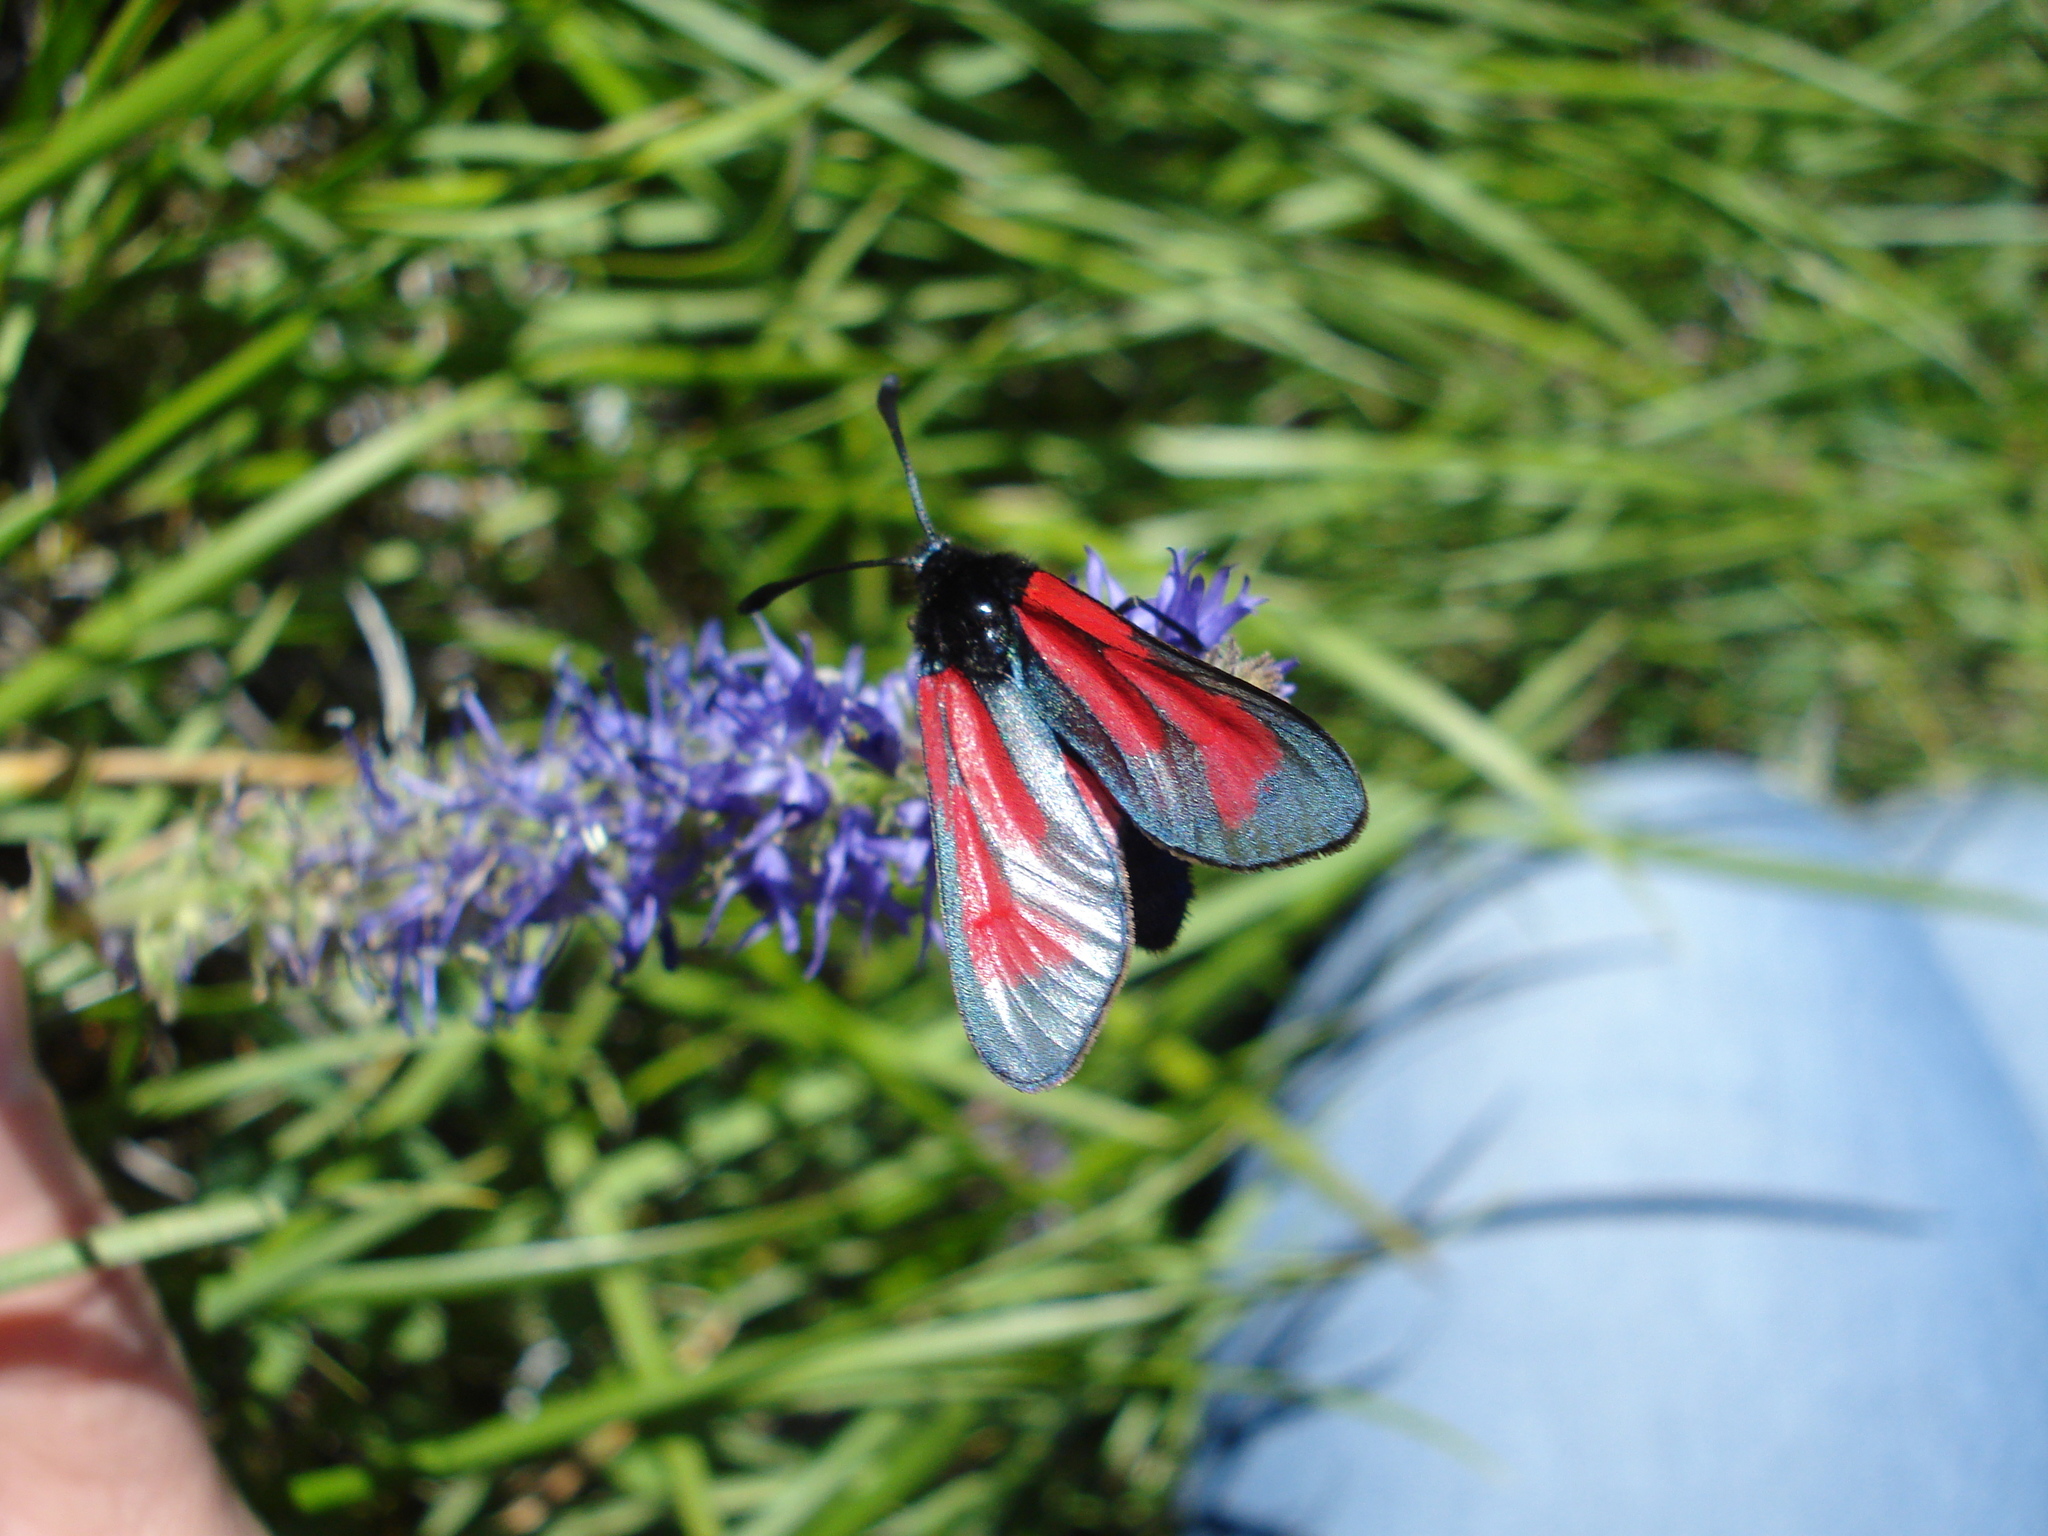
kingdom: Animalia
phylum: Arthropoda
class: Insecta
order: Lepidoptera
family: Zygaenidae
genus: Zygaena
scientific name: Zygaena purpuralis
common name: Transparent burnet
